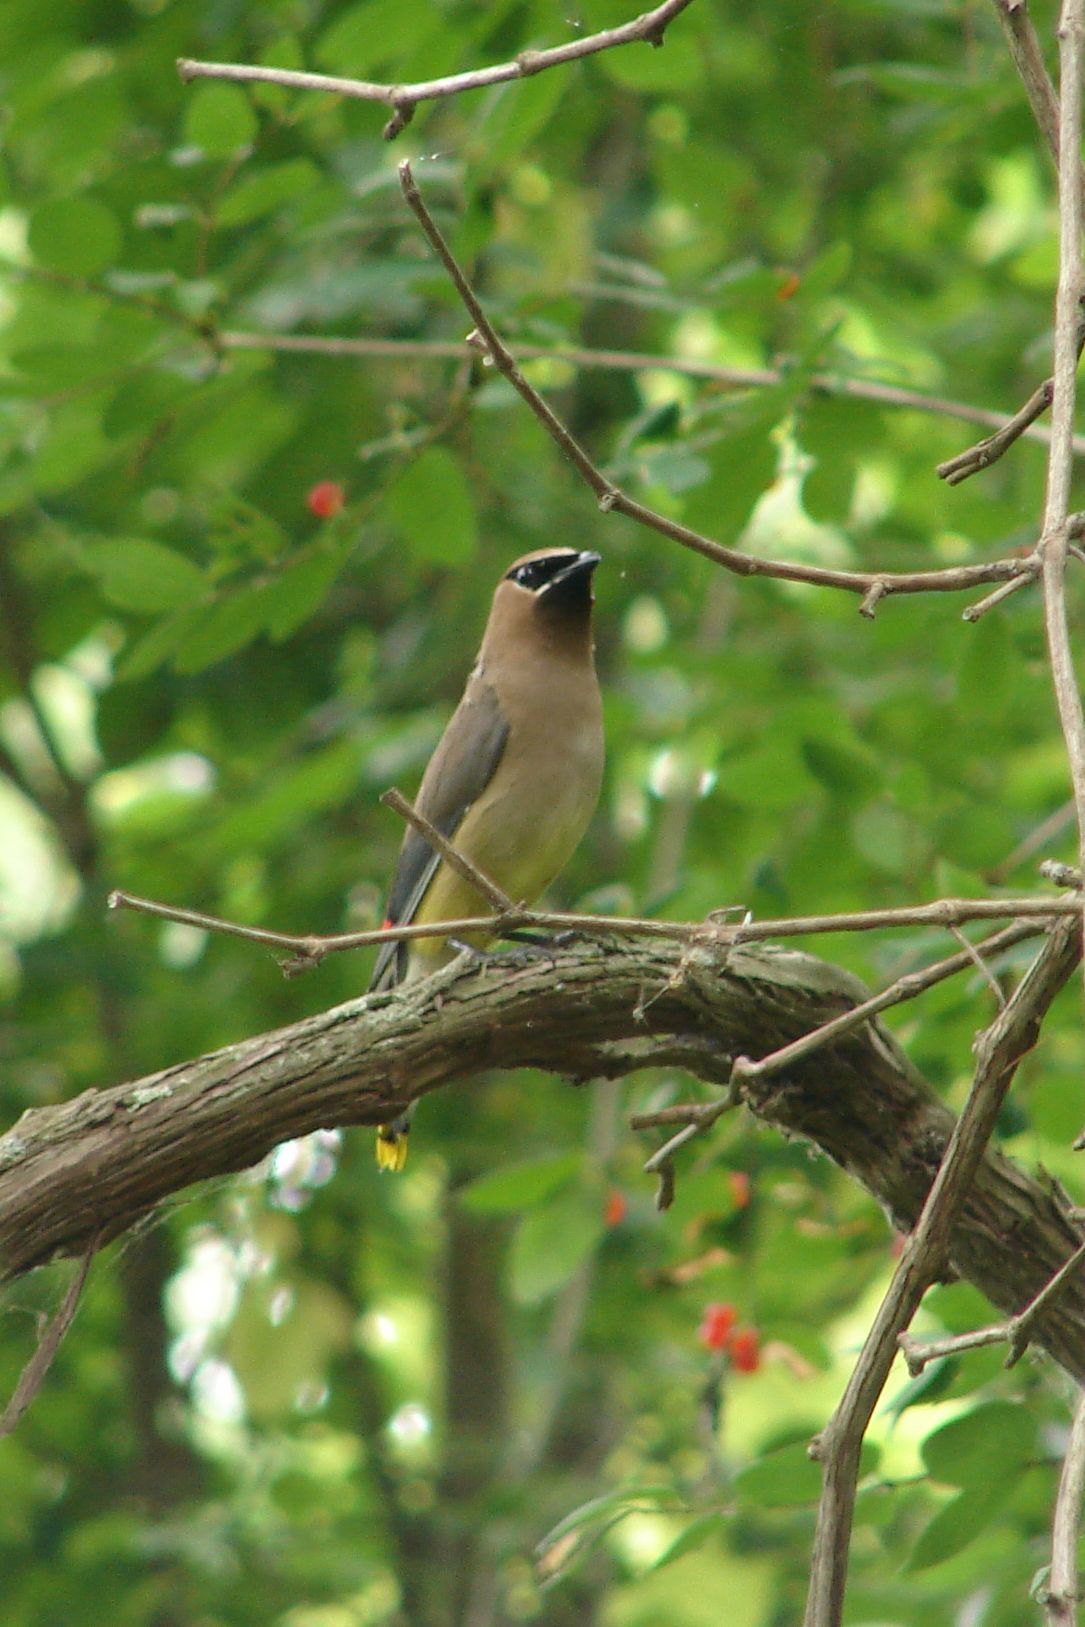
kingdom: Animalia
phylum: Chordata
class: Aves
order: Passeriformes
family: Bombycillidae
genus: Bombycilla
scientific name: Bombycilla cedrorum
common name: Cedar waxwing
